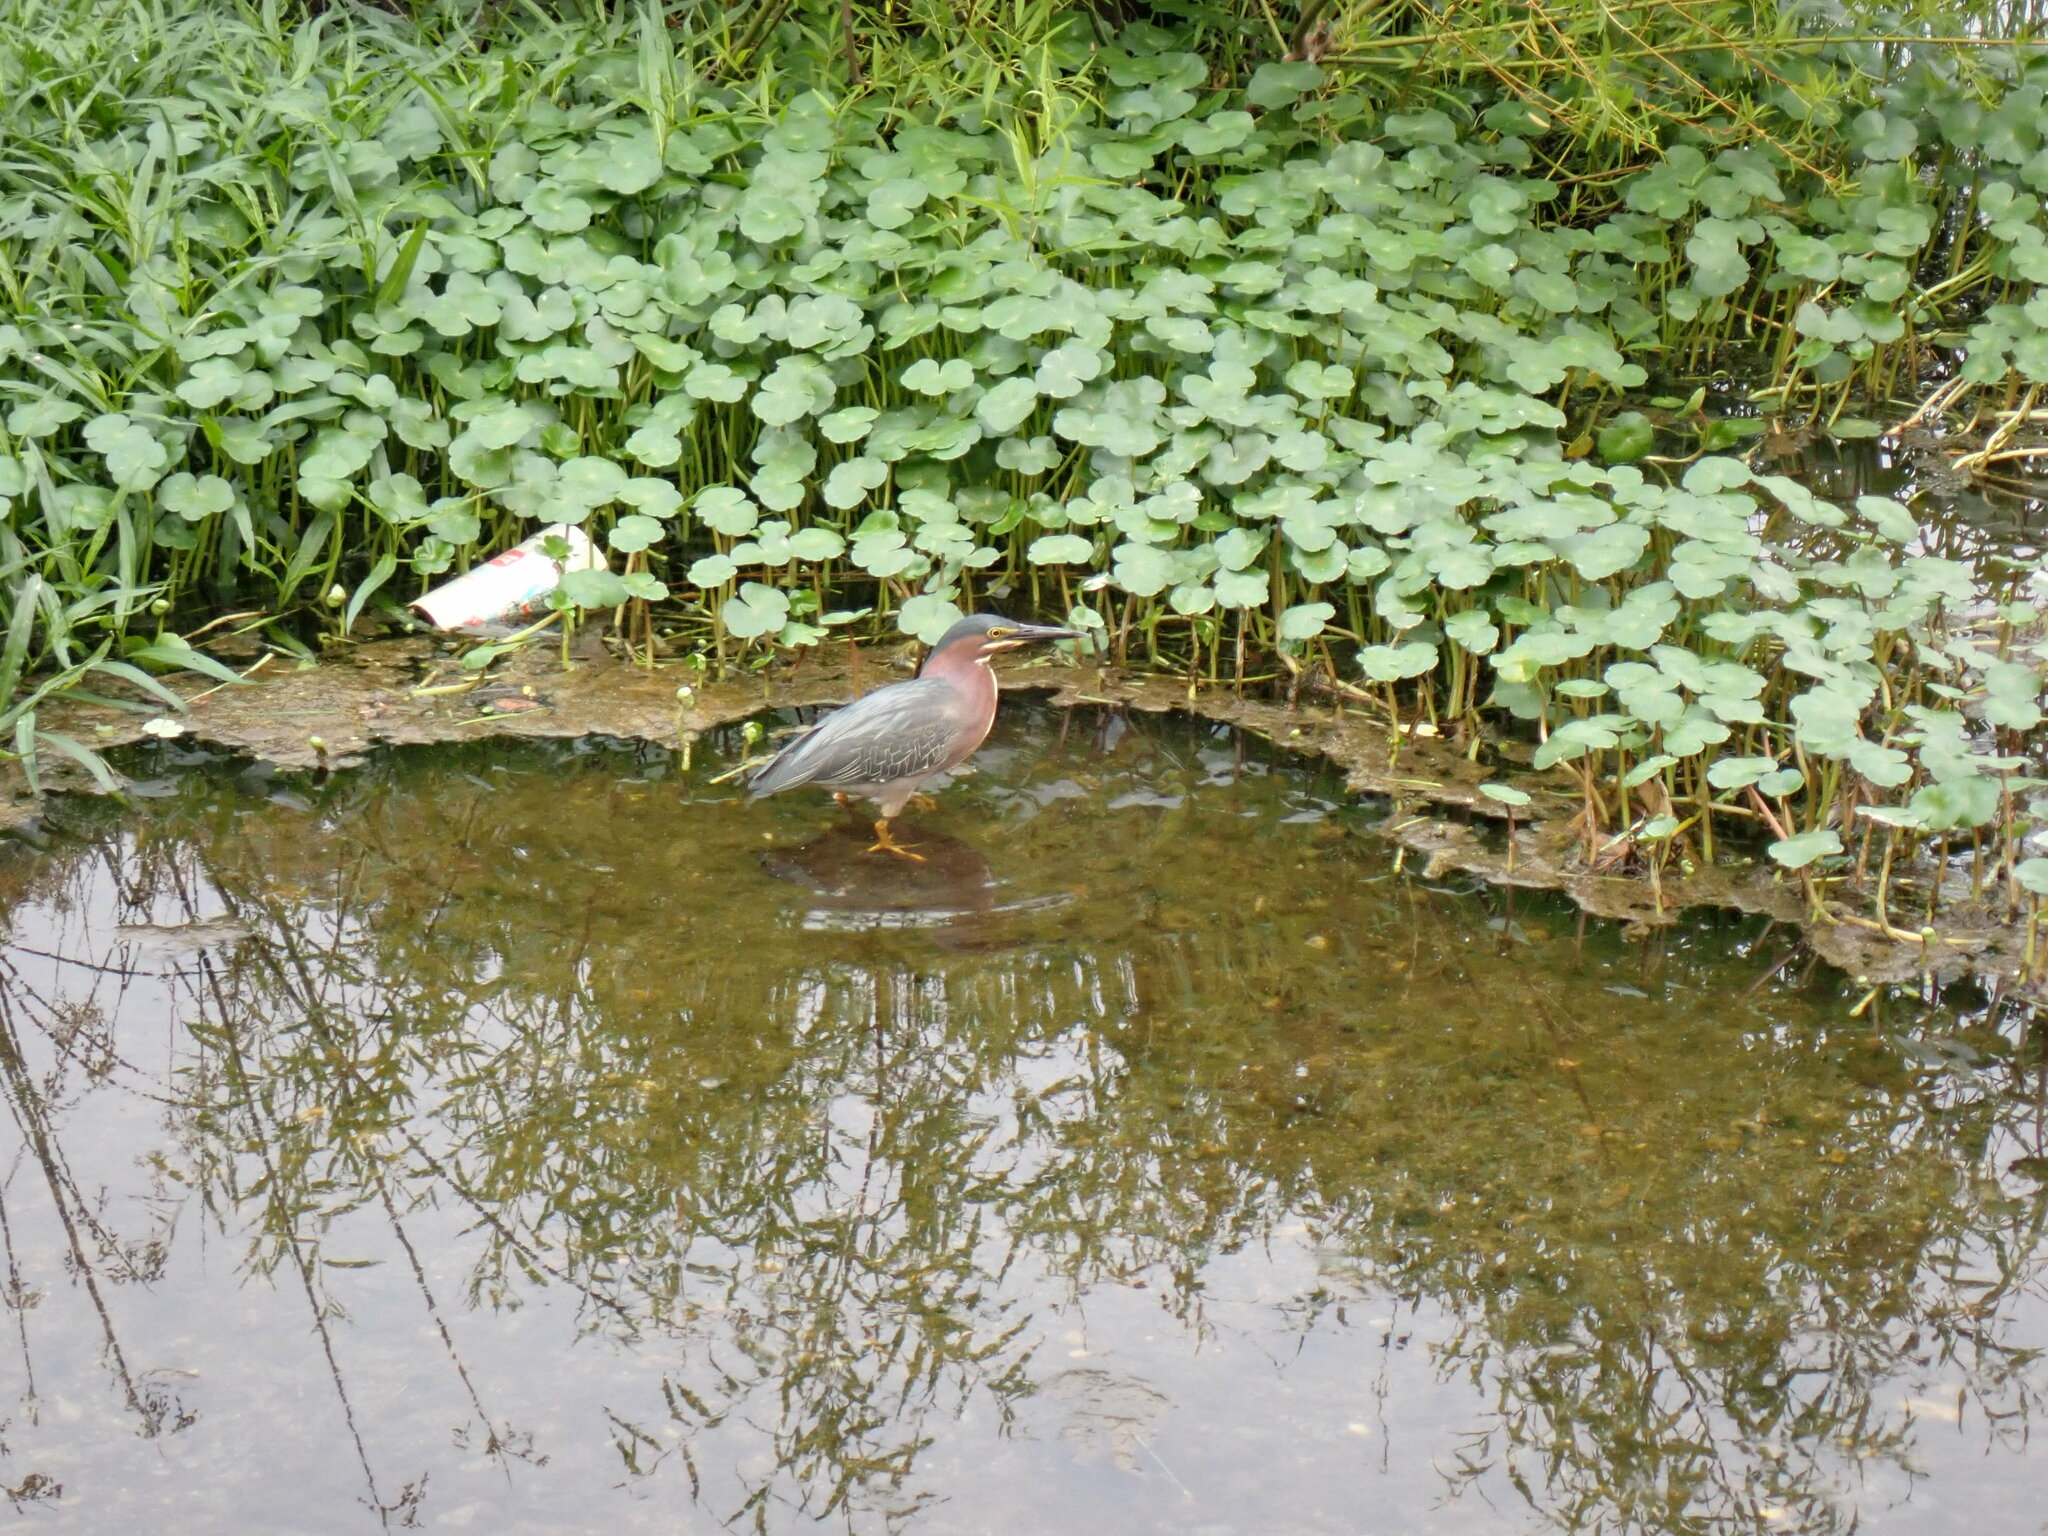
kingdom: Animalia
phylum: Chordata
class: Aves
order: Pelecaniformes
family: Ardeidae
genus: Butorides
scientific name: Butorides virescens
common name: Green heron
